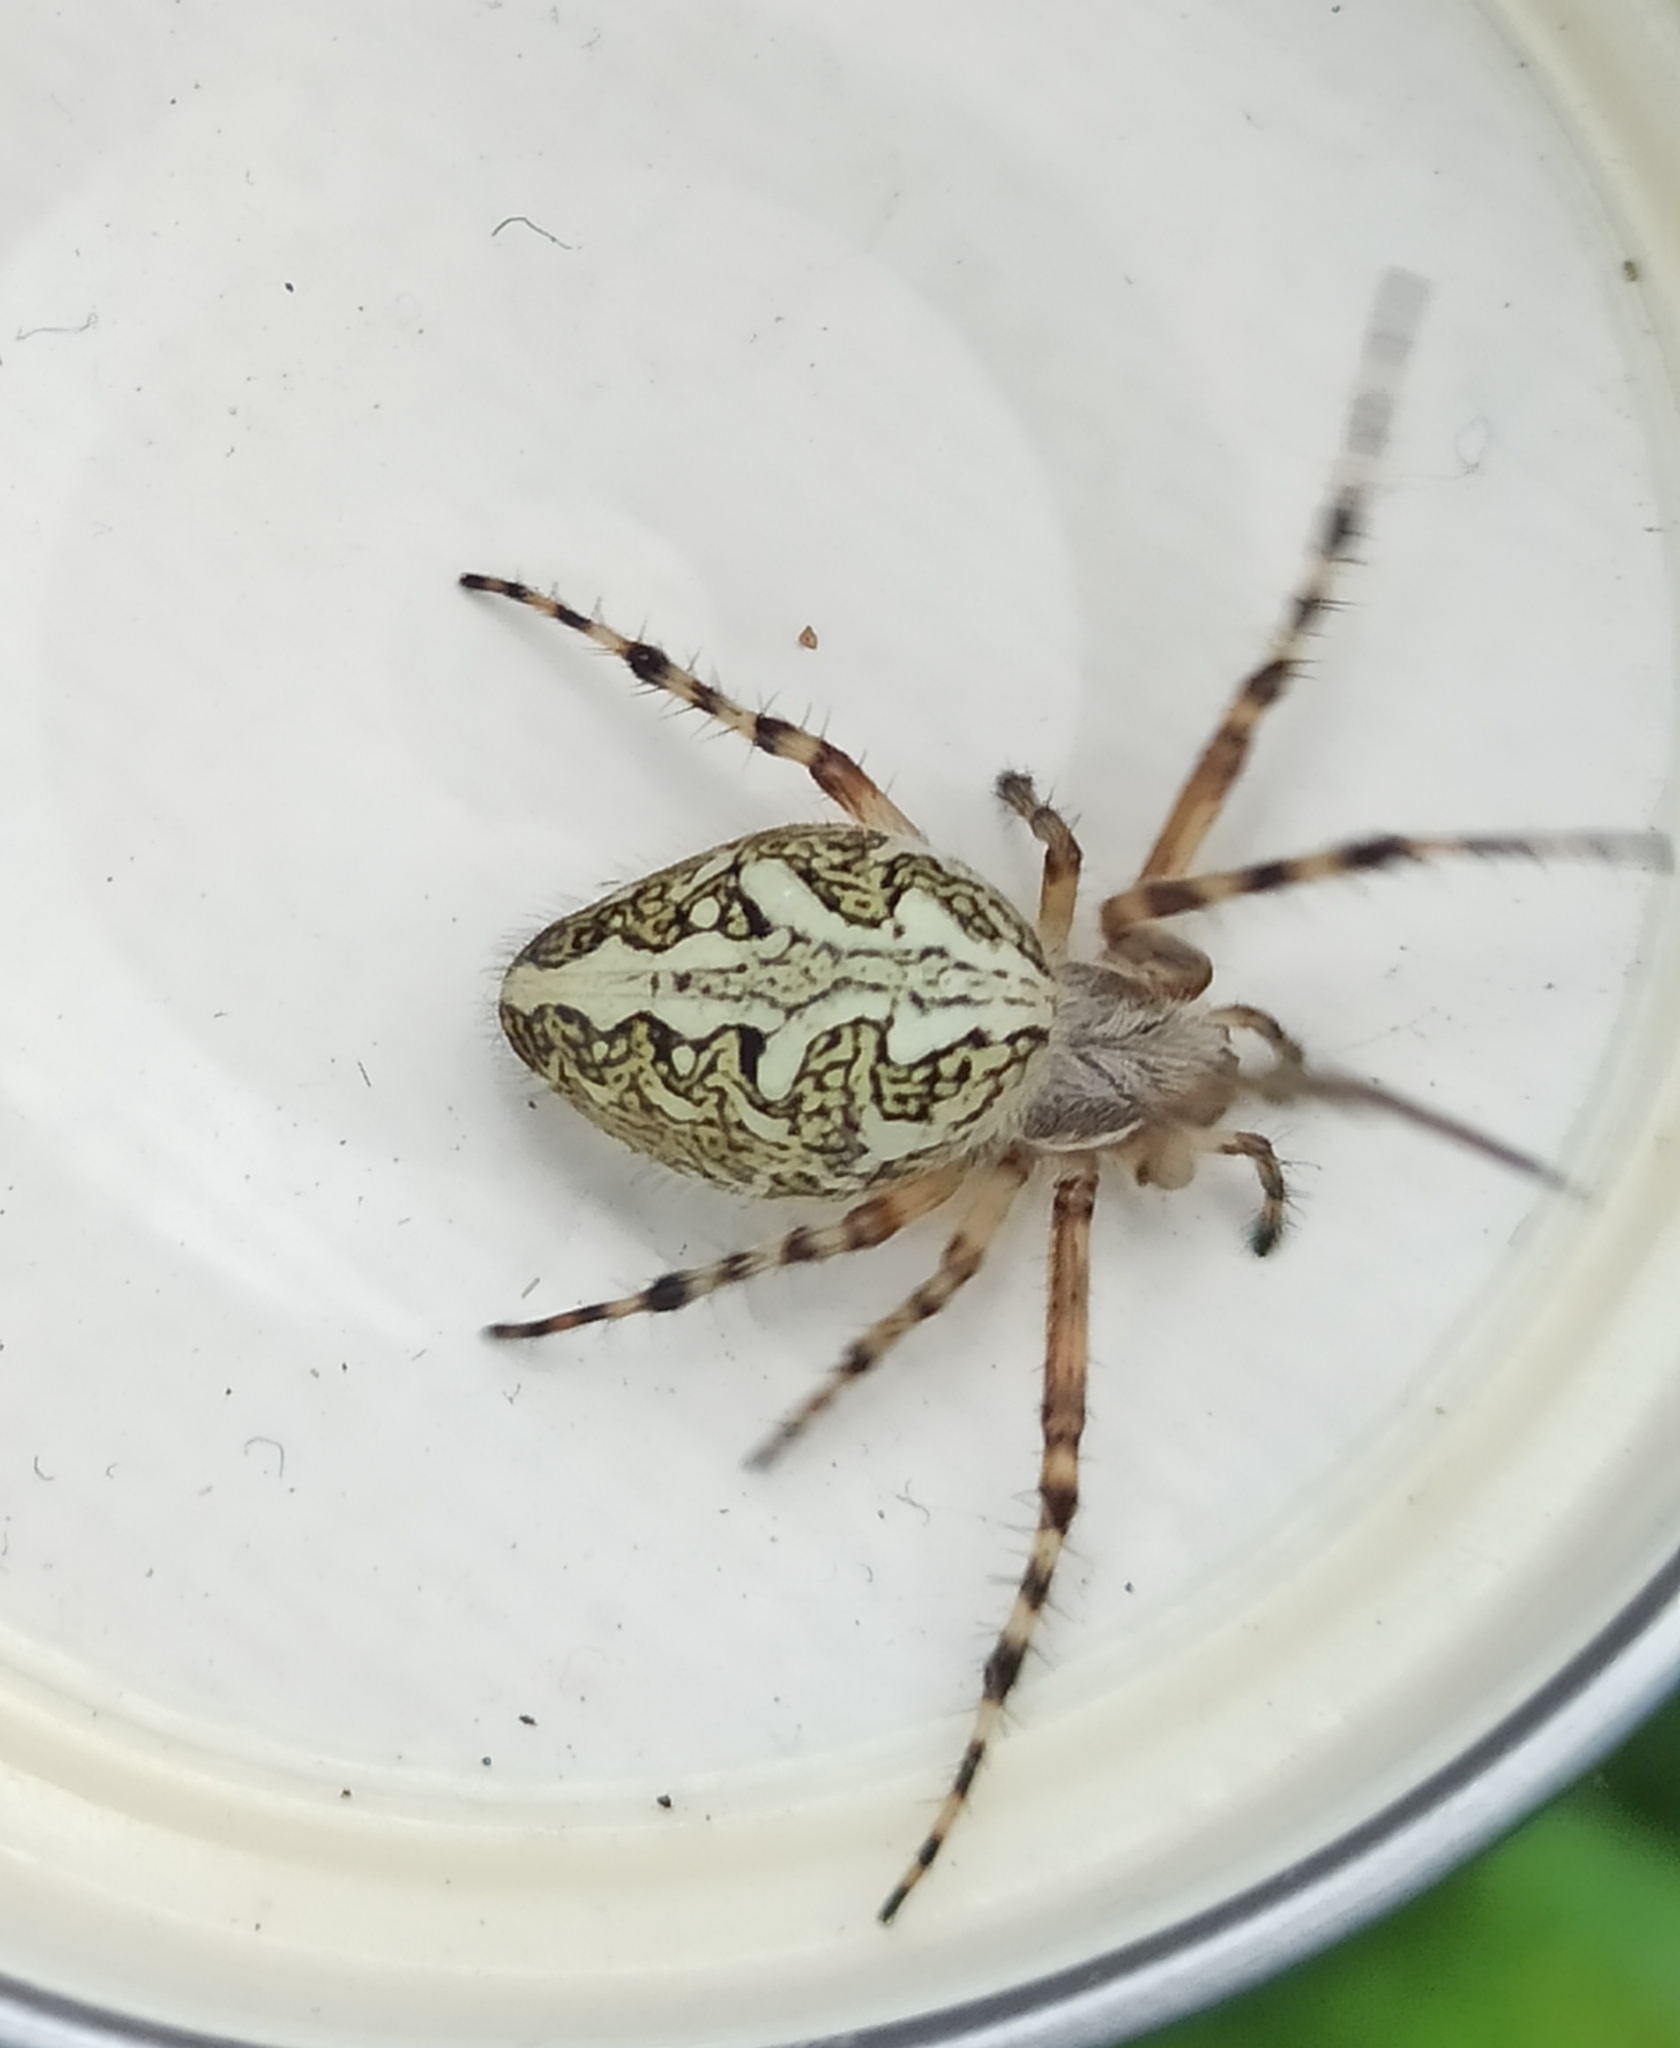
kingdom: Animalia
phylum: Arthropoda
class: Arachnida
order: Araneae
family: Araneidae
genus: Aculepeira
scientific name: Aculepeira ceropegia
